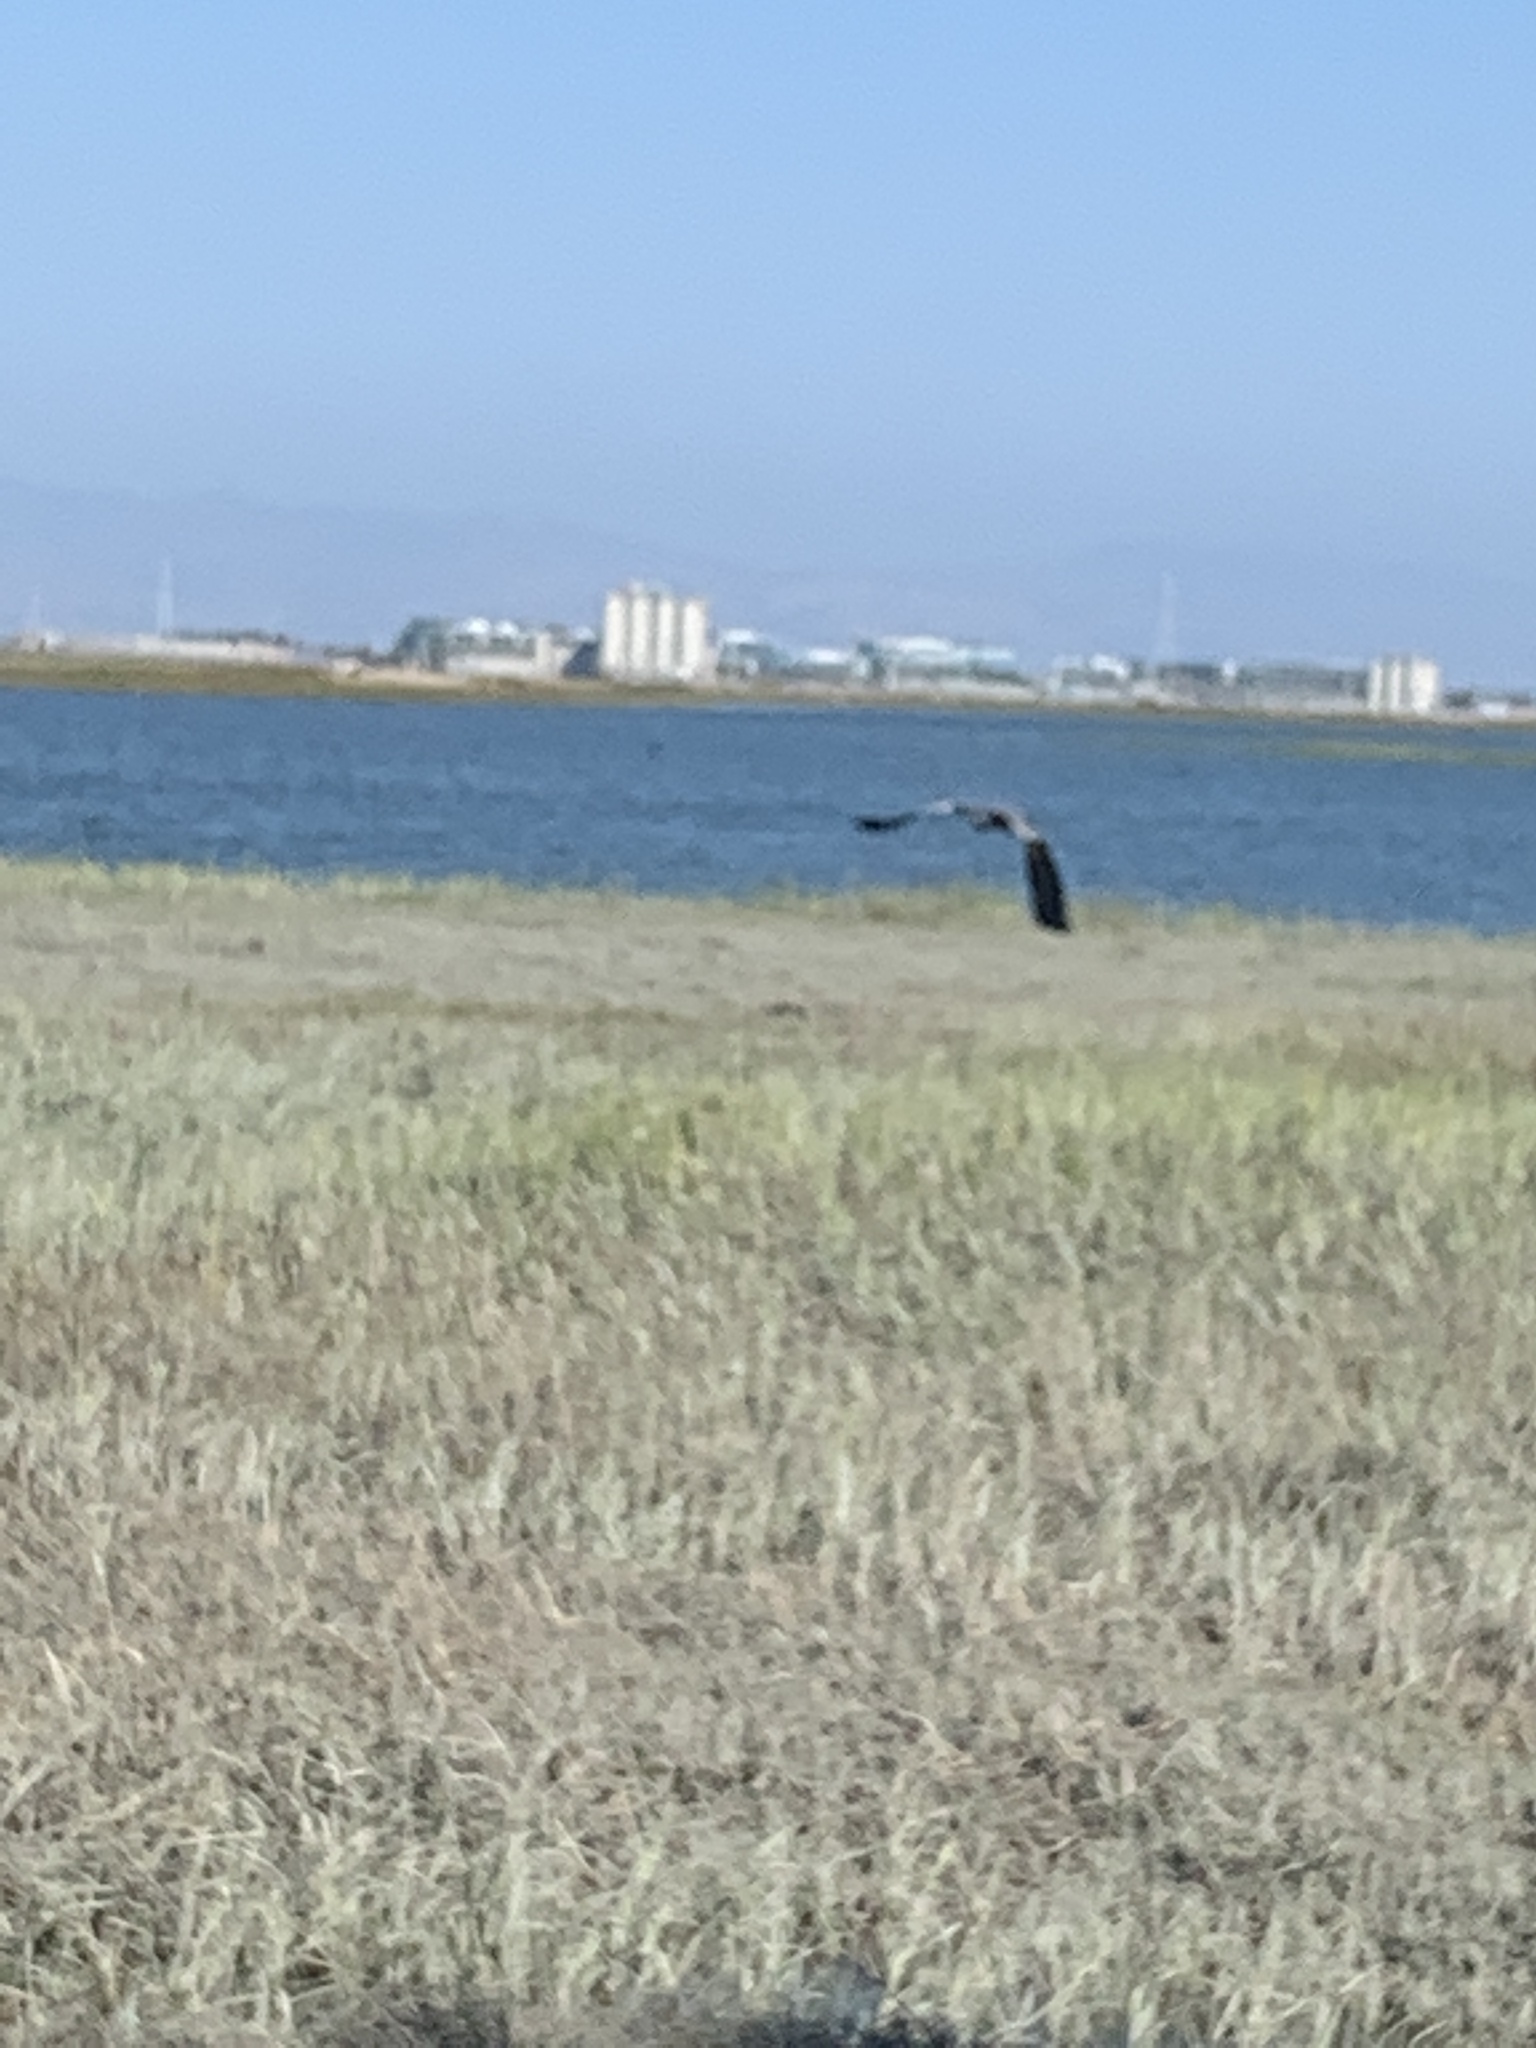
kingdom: Animalia
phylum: Chordata
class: Aves
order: Pelecaniformes
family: Ardeidae
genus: Ardea
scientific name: Ardea herodias
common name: Great blue heron
